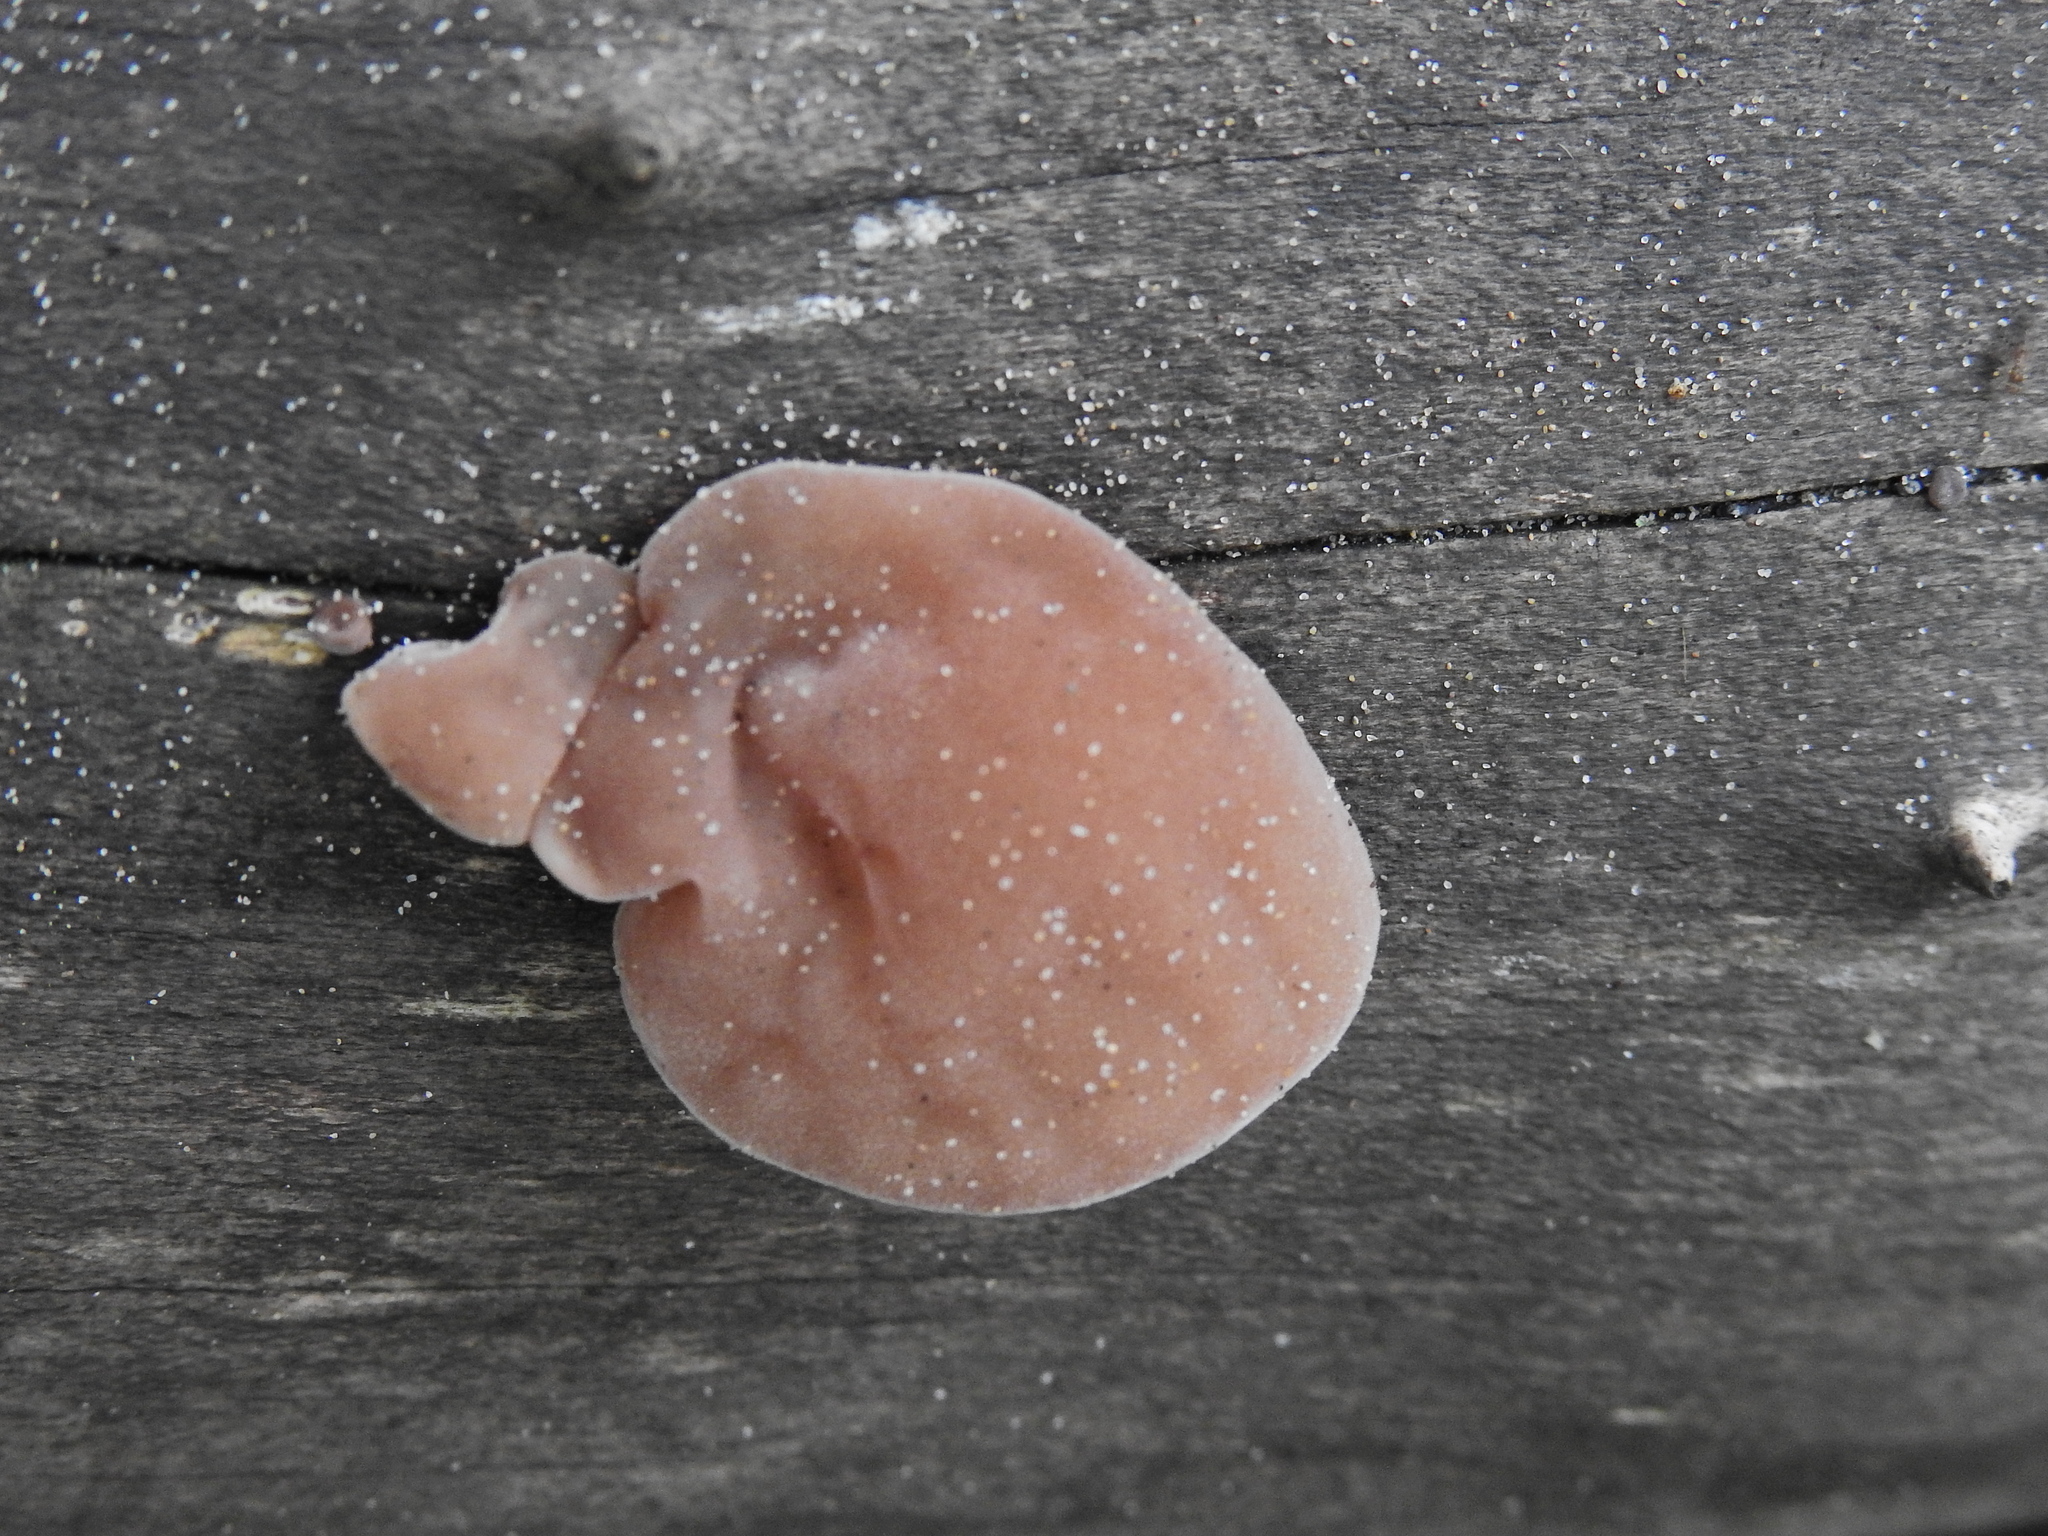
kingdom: Fungi
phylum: Basidiomycota
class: Agaricomycetes
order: Auriculariales
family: Auriculariaceae
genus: Auricularia
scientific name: Auricularia auricula-judae
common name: Jelly ear
